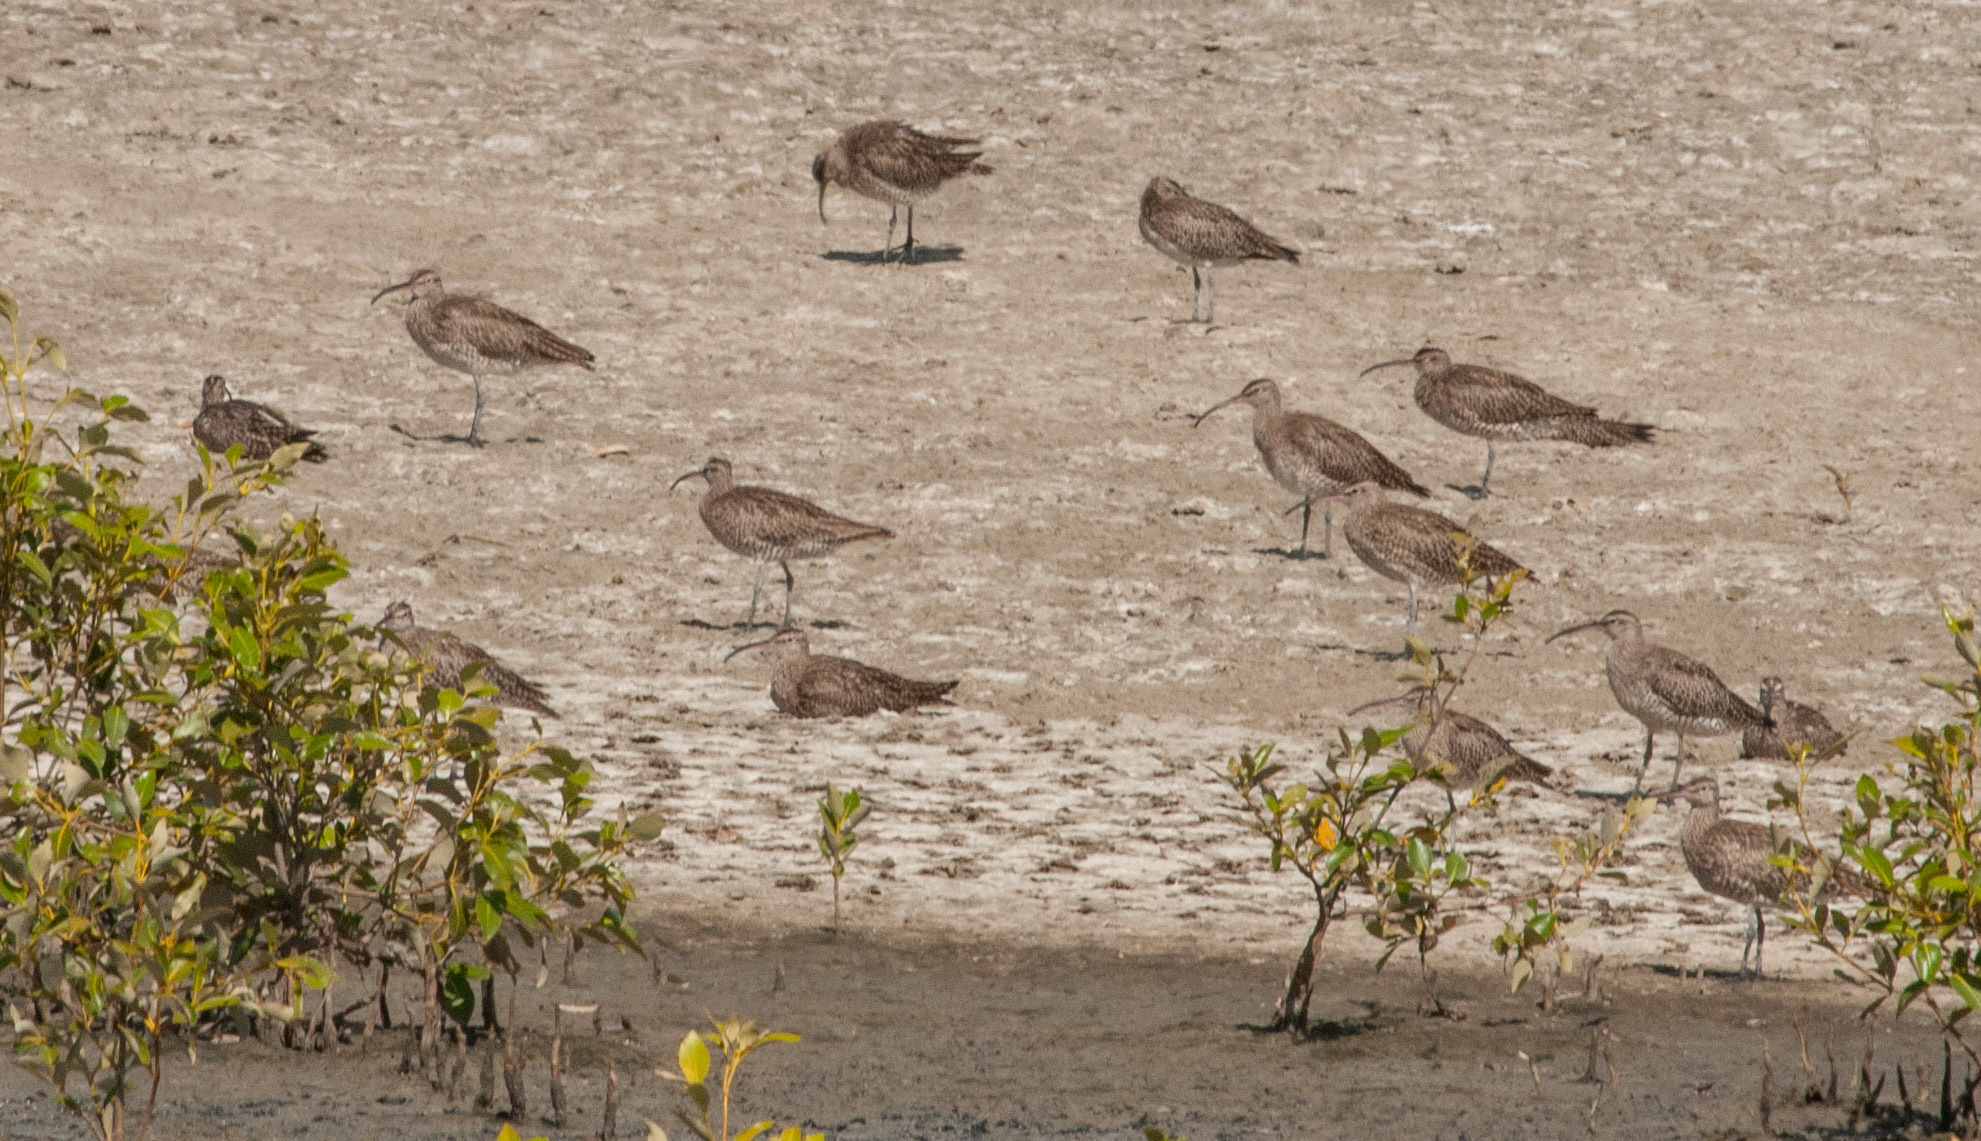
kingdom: Animalia
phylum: Chordata
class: Aves
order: Charadriiformes
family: Scolopacidae
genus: Numenius
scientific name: Numenius phaeopus
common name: Whimbrel
